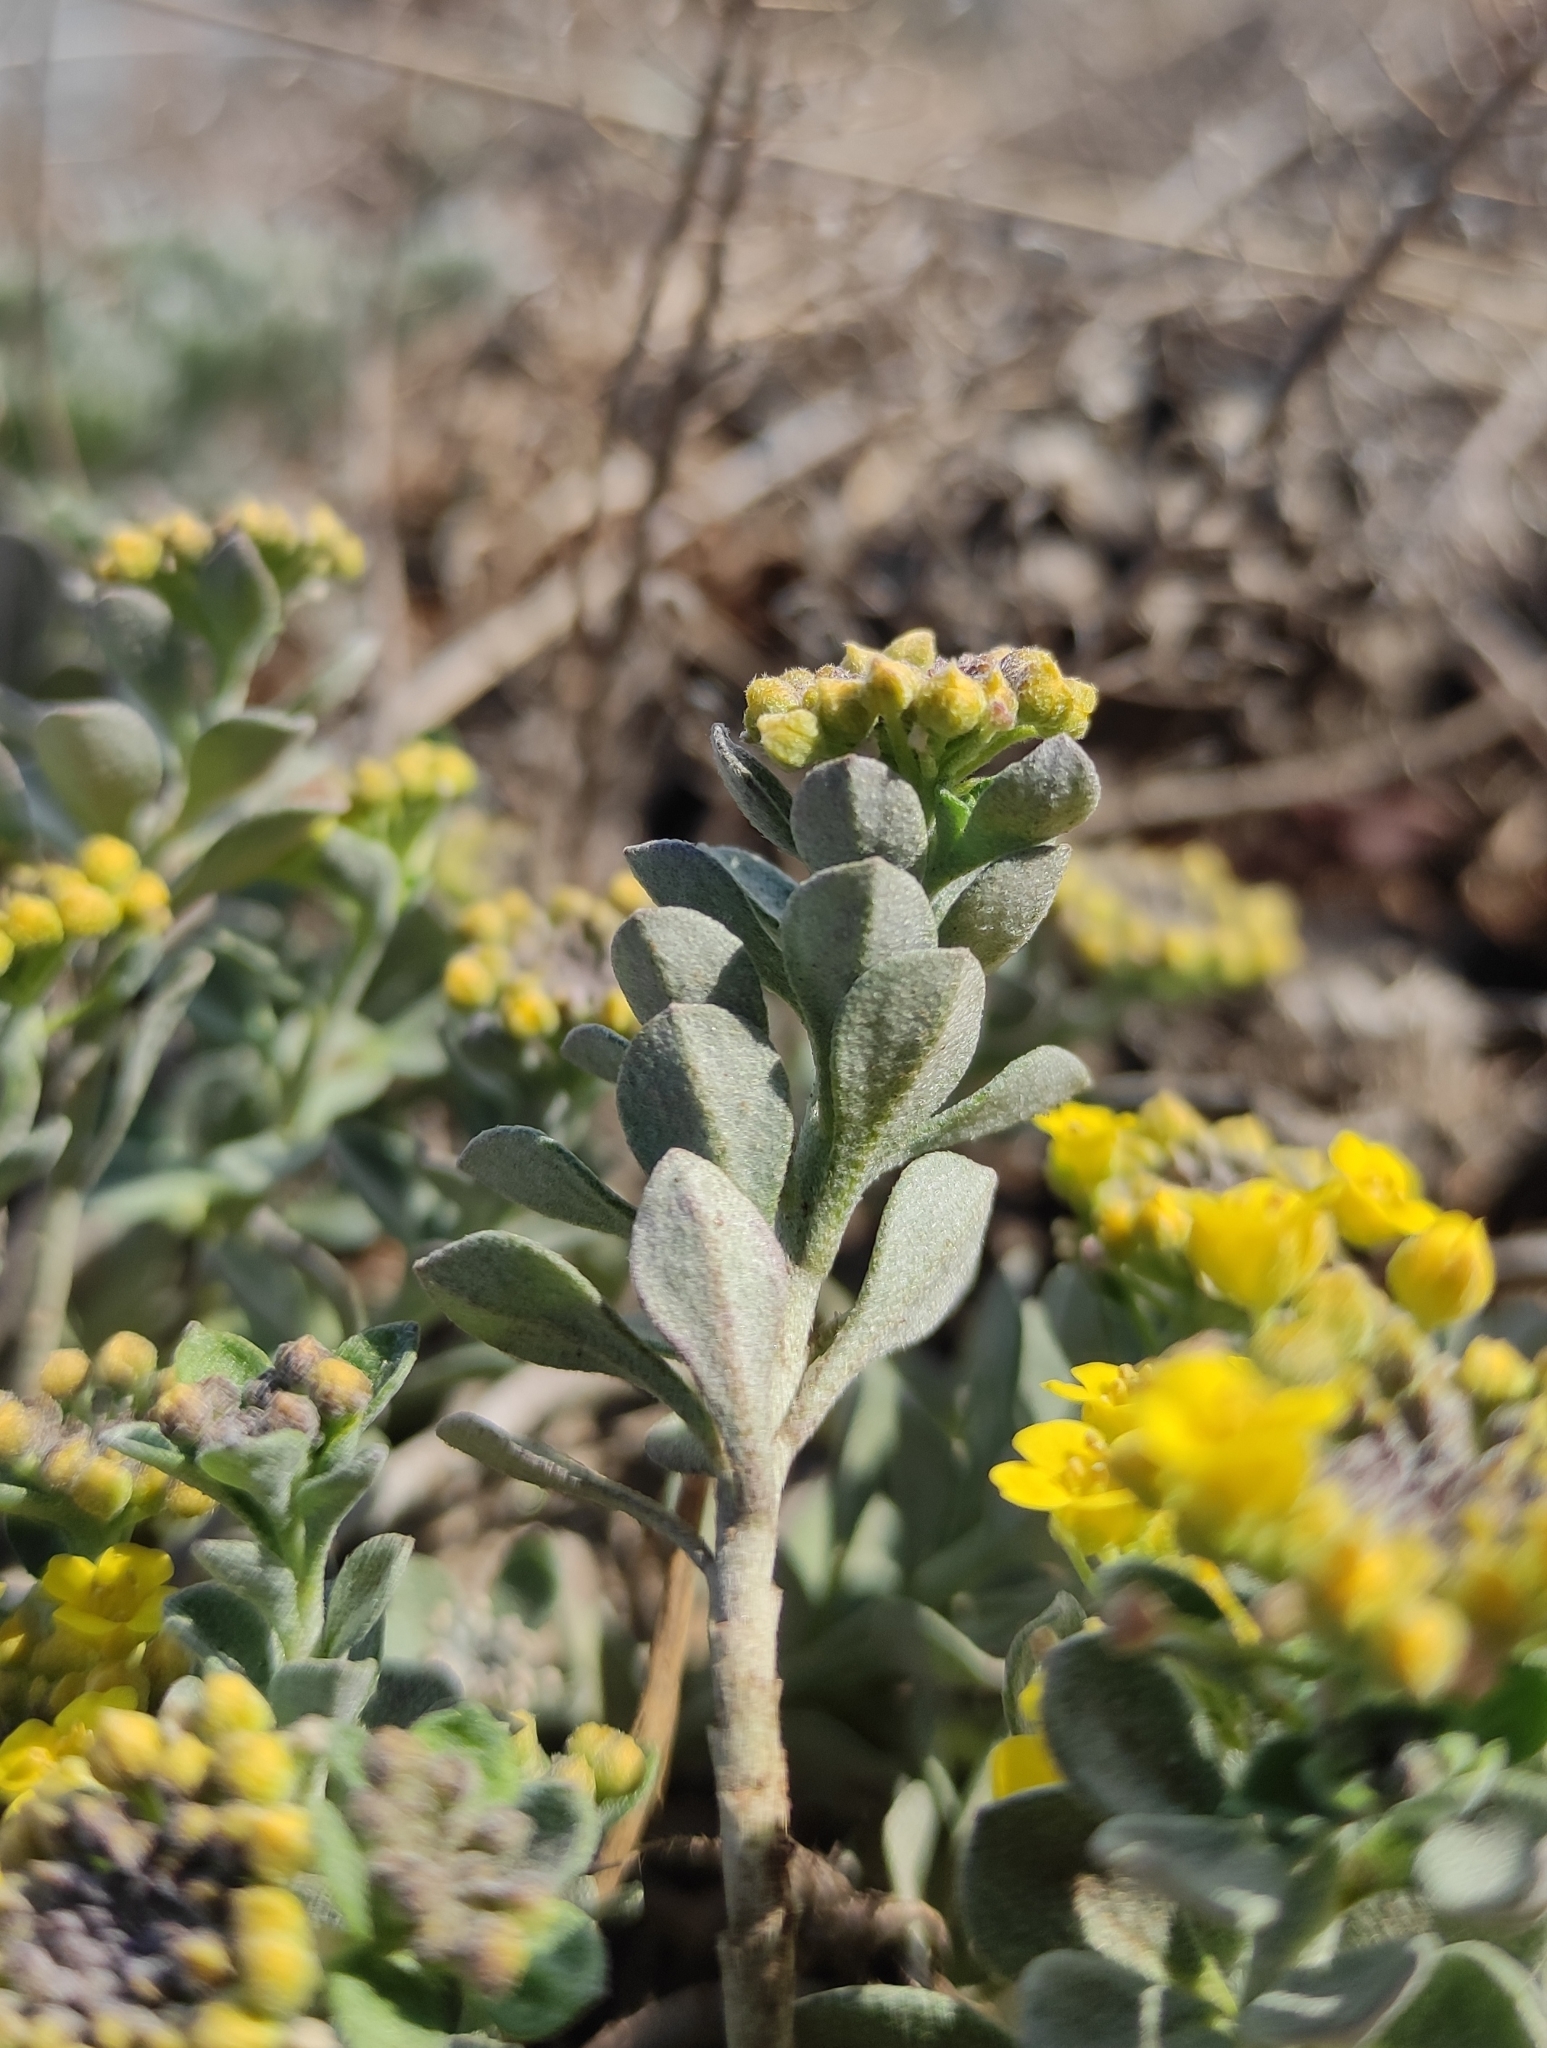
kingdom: Plantae
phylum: Tracheophyta
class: Magnoliopsida
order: Brassicales
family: Brassicaceae
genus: Odontarrhena
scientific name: Odontarrhena obovata
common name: American alyssum
